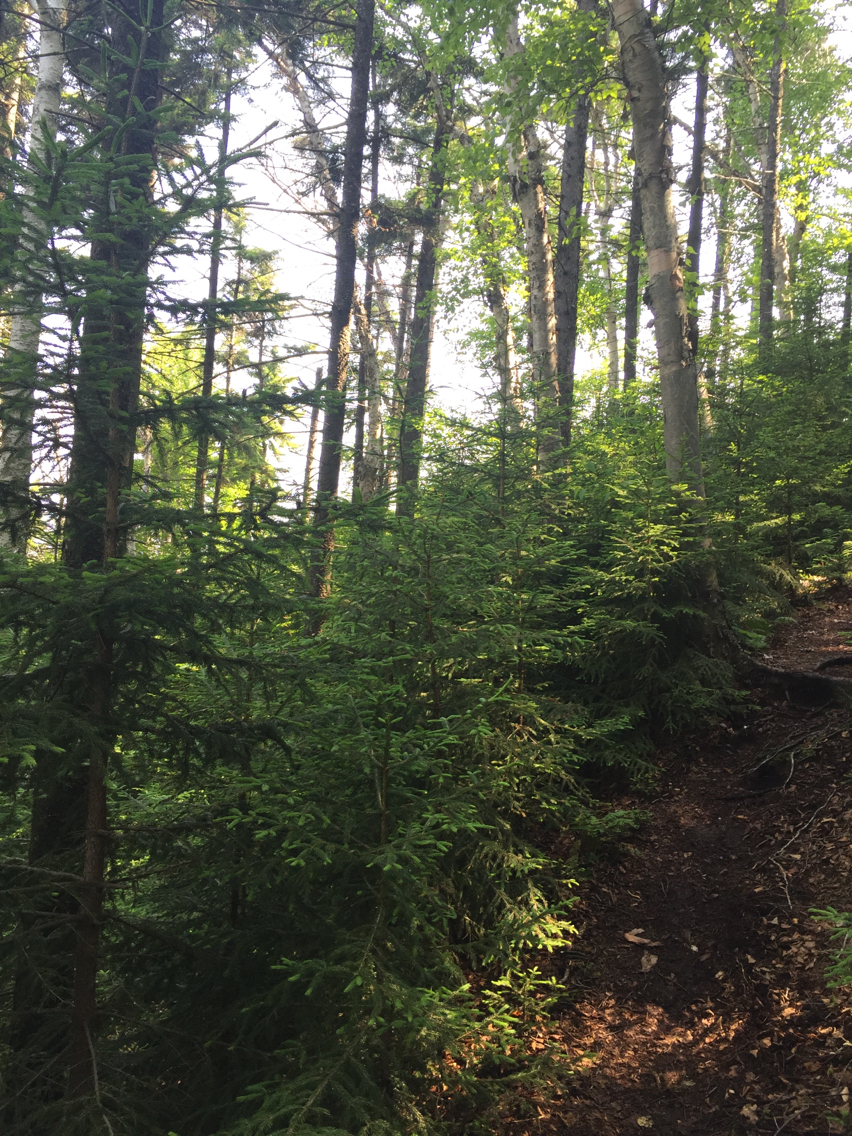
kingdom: Plantae
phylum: Tracheophyta
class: Pinopsida
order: Pinales
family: Pinaceae
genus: Picea
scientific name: Picea rubens
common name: Red spruce
